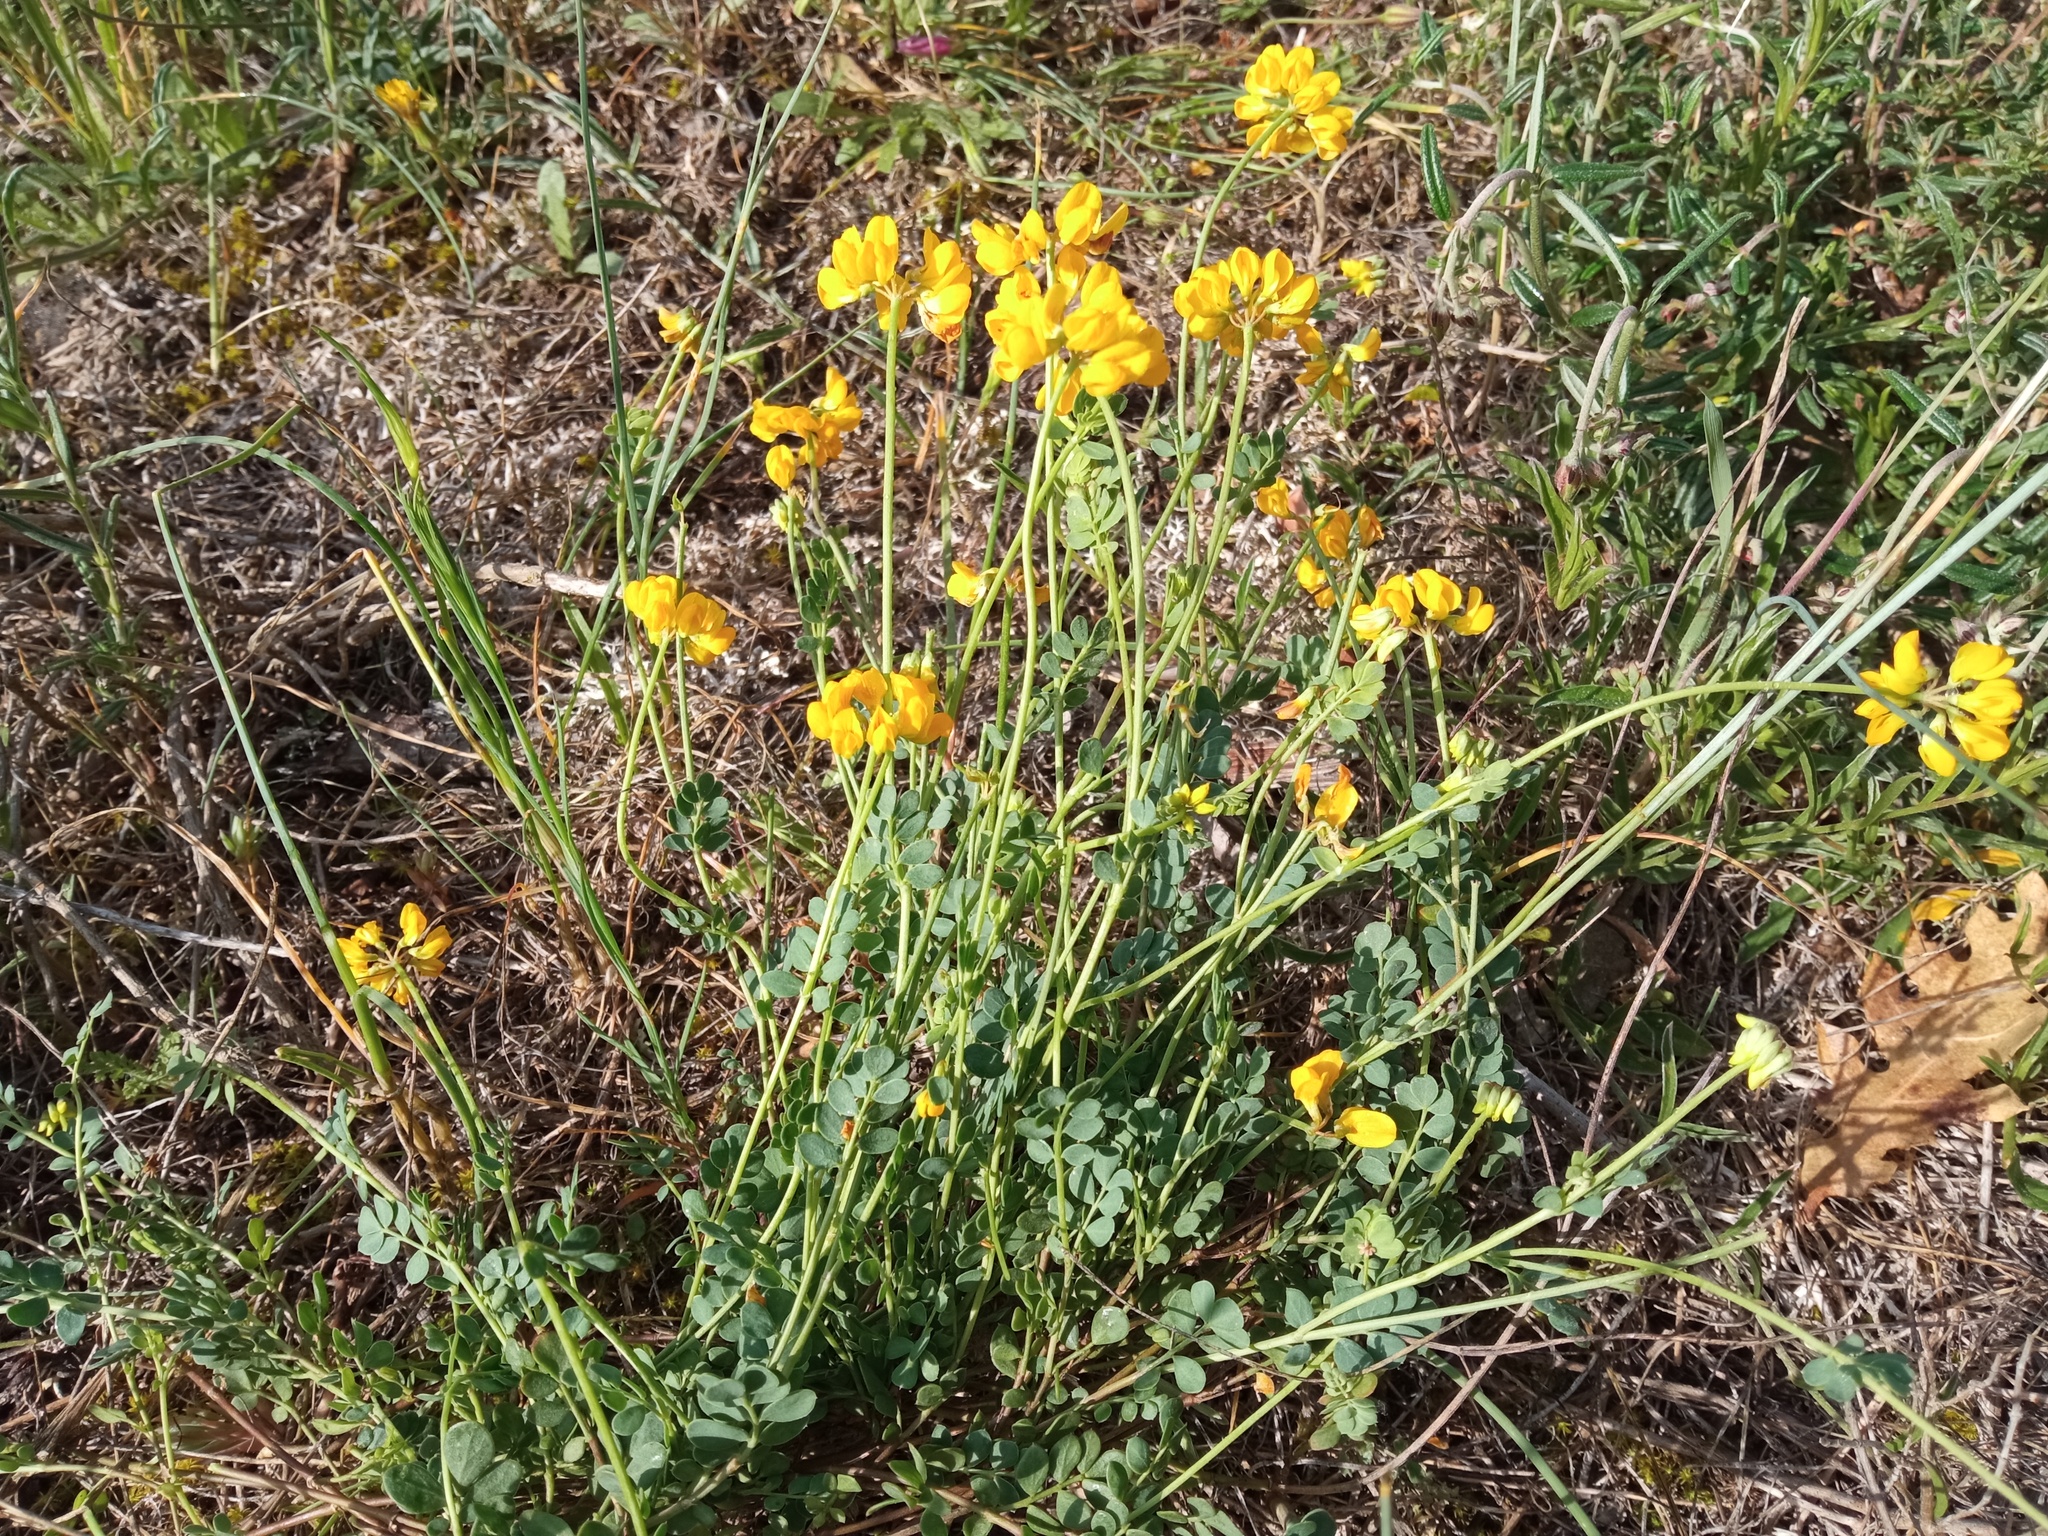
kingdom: Plantae
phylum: Tracheophyta
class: Magnoliopsida
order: Fabales
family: Fabaceae
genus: Coronilla
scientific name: Coronilla minima
